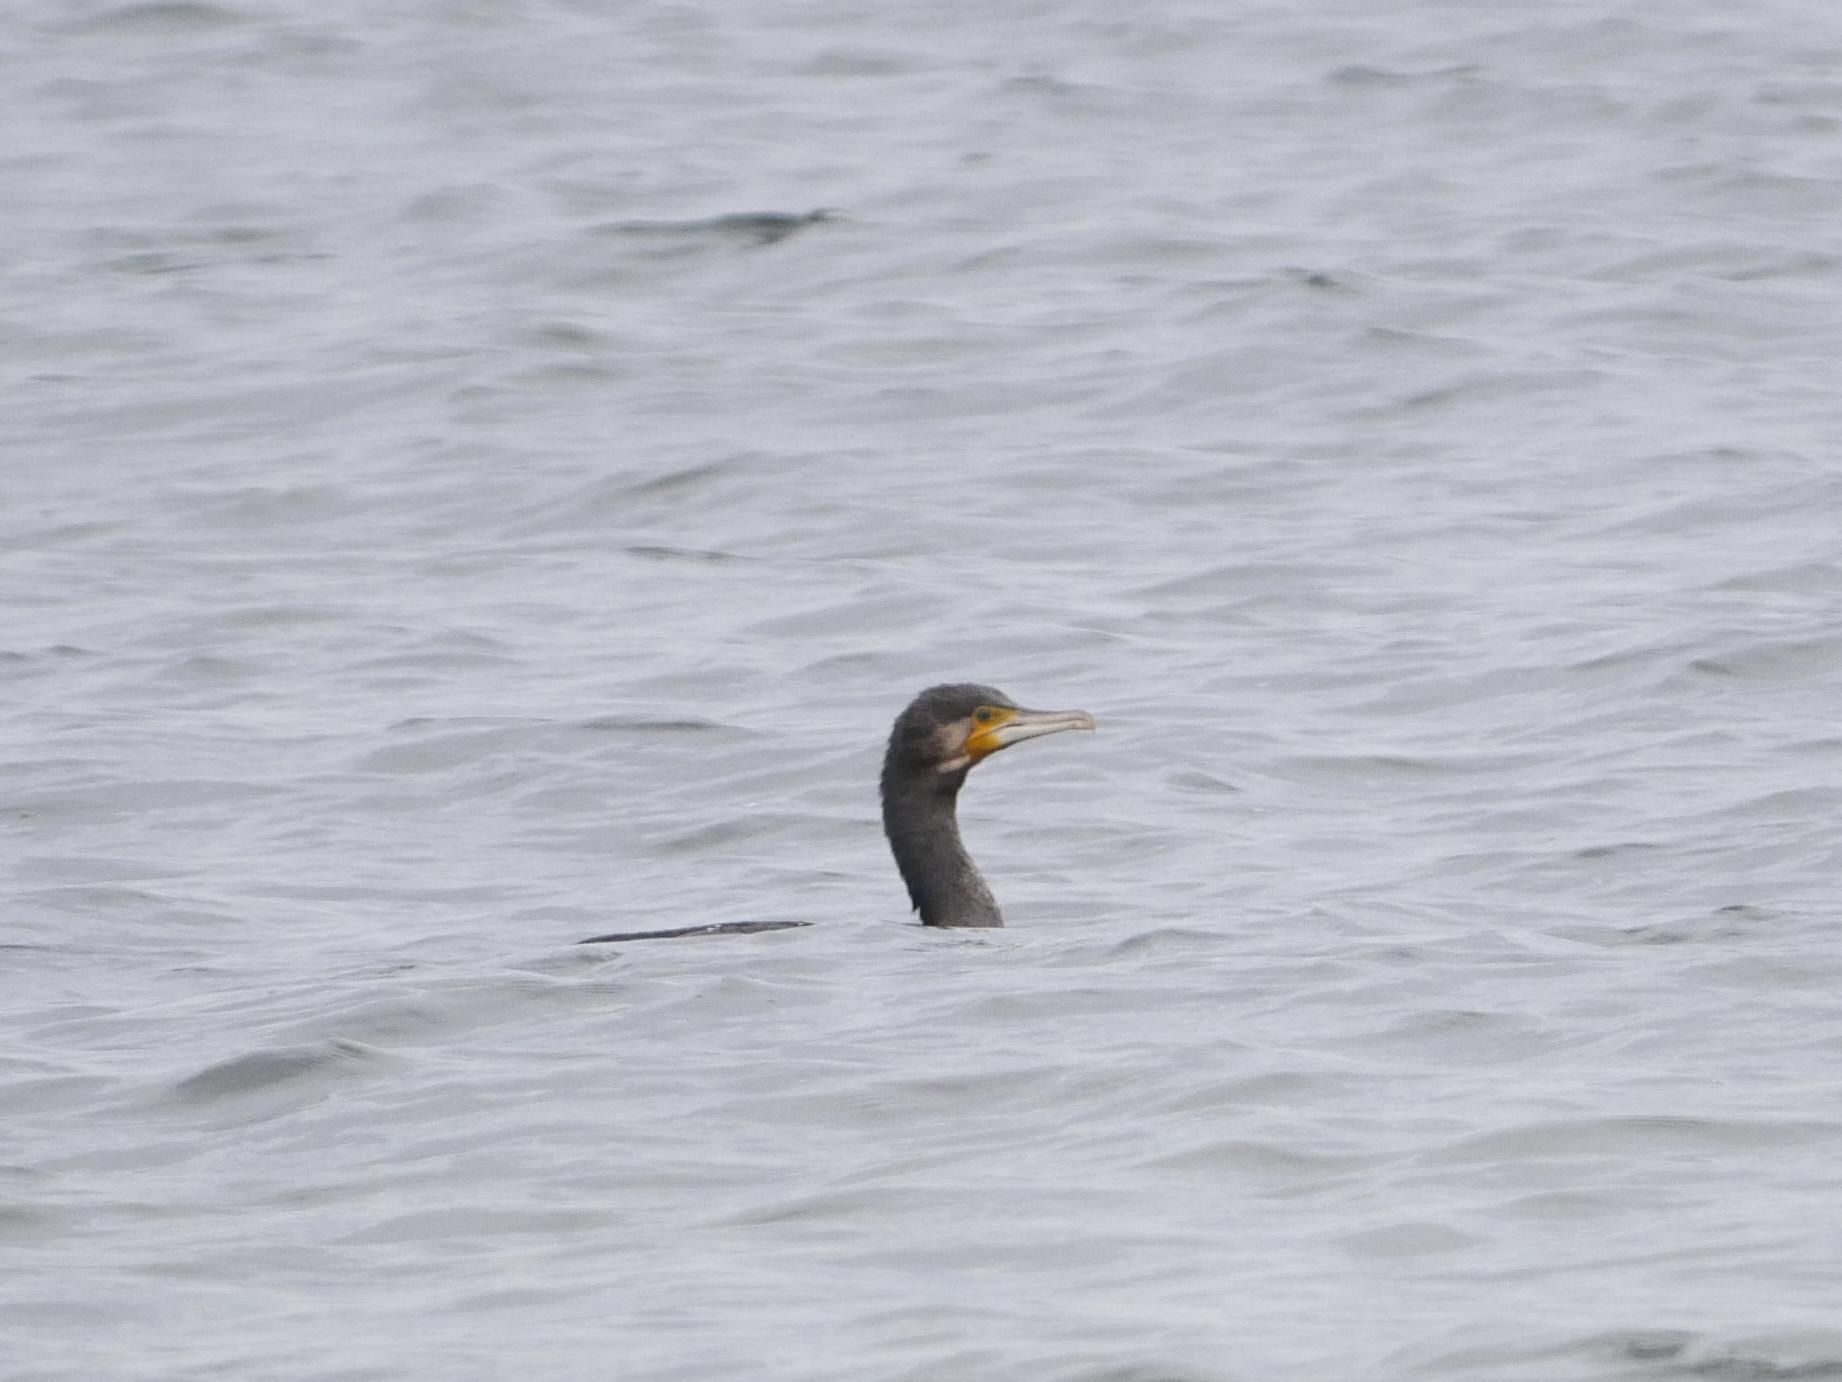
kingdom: Animalia
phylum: Chordata
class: Aves
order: Suliformes
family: Phalacrocoracidae
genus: Phalacrocorax
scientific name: Phalacrocorax carbo
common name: Great cormorant
